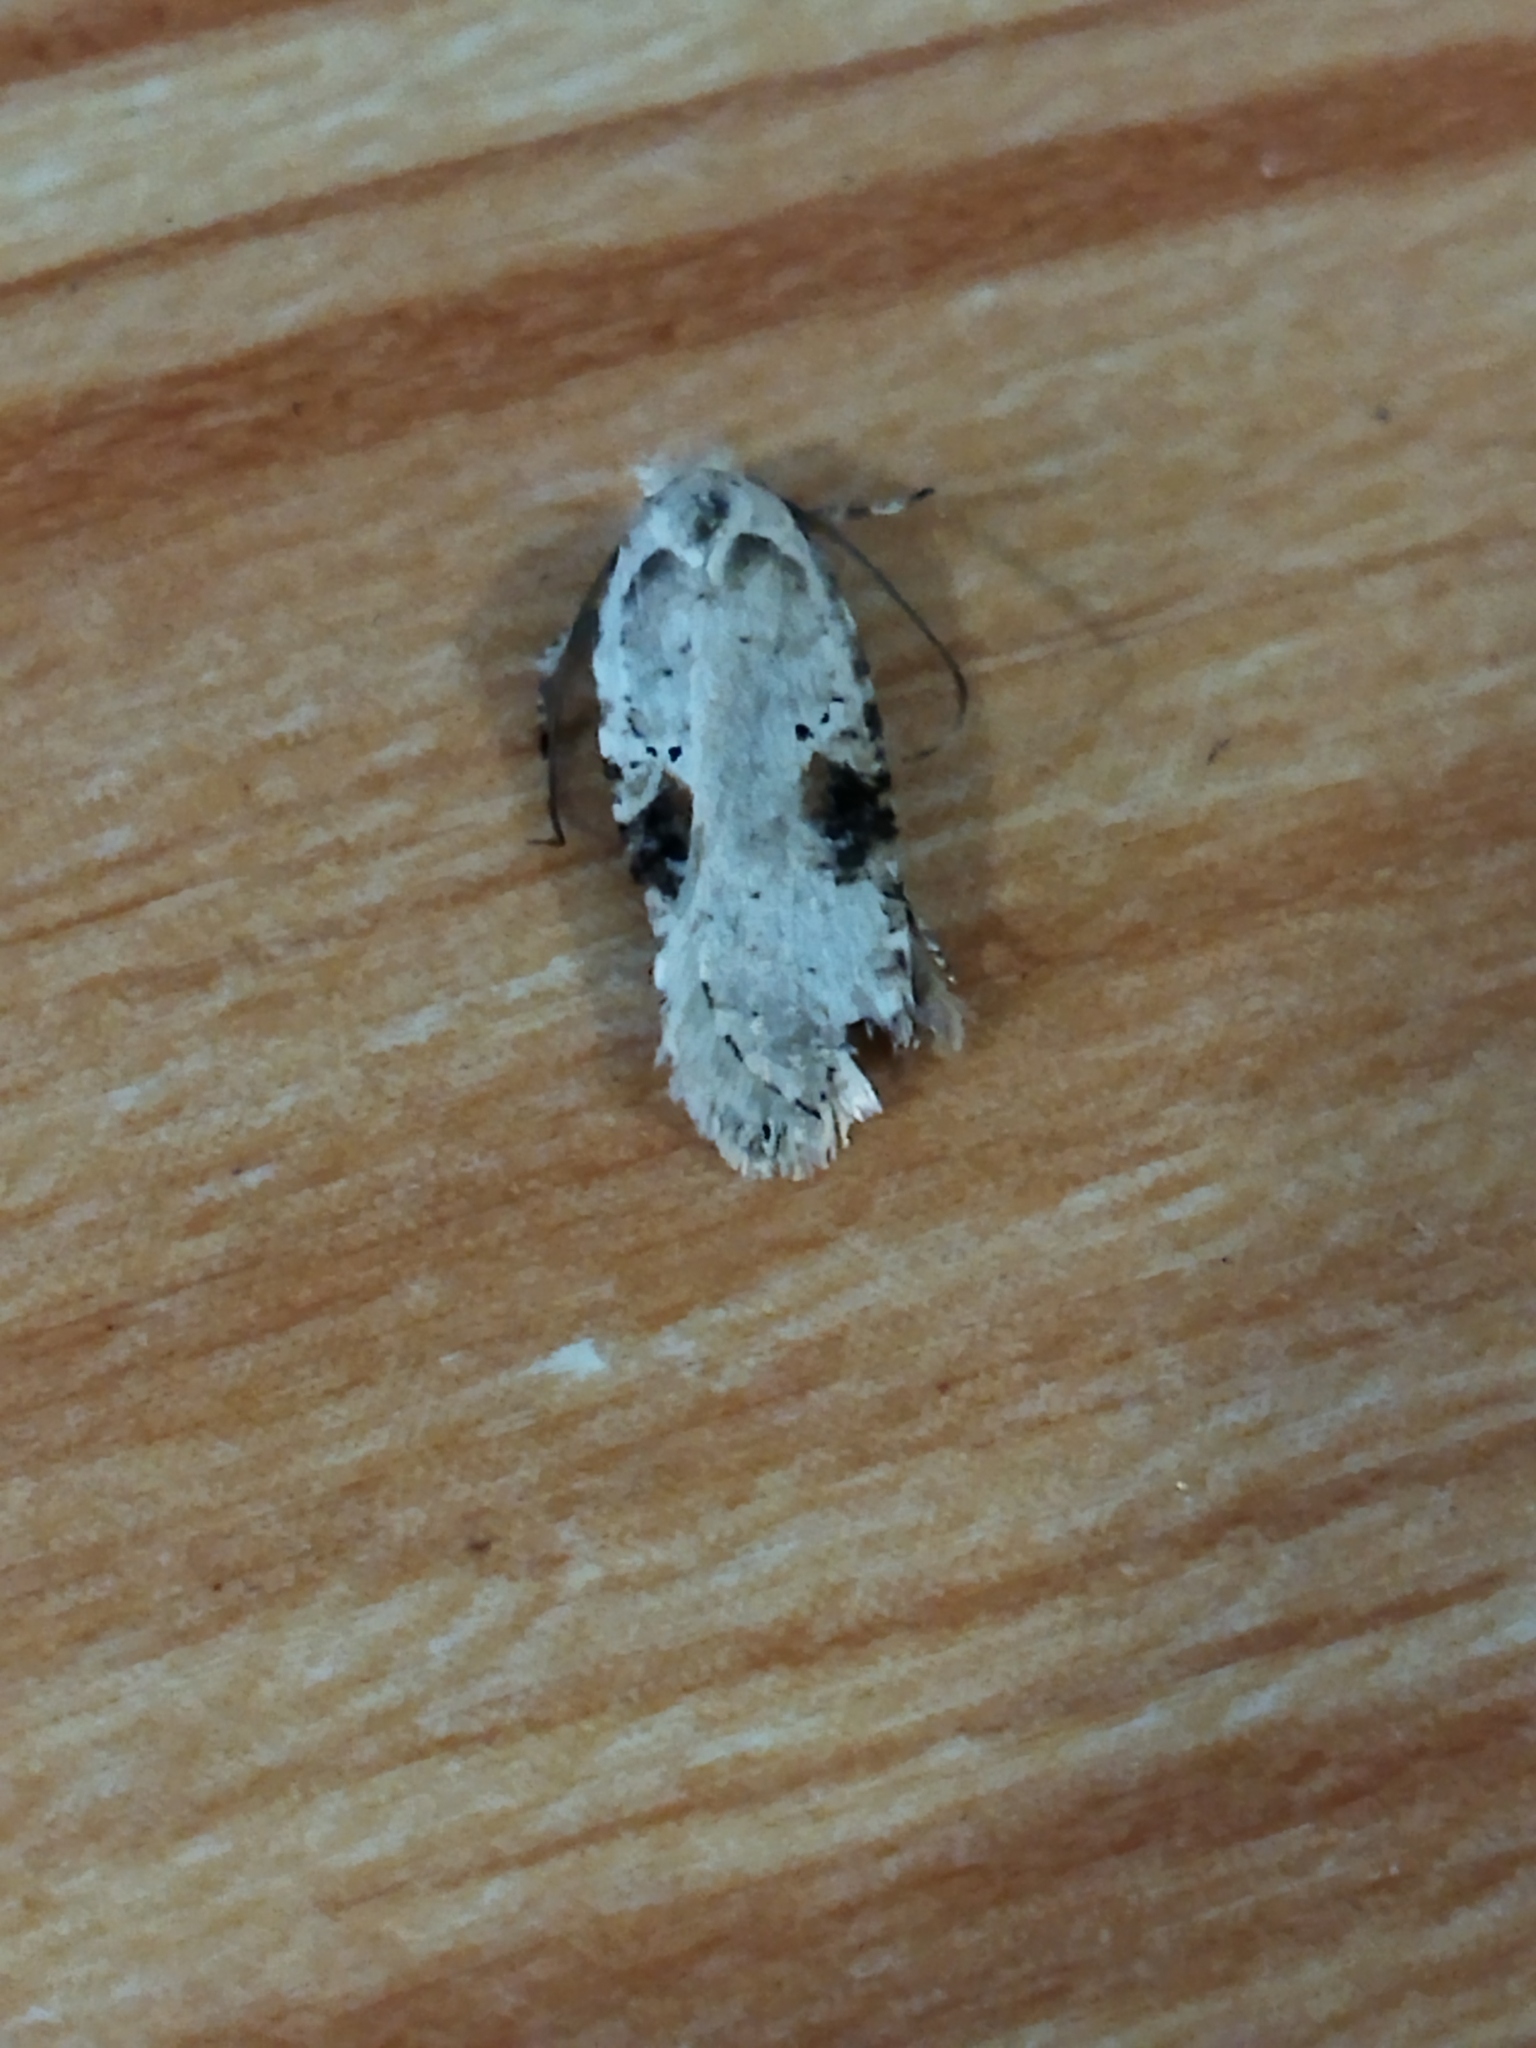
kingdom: Animalia
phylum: Arthropoda
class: Insecta
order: Lepidoptera
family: Depressariidae
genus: Agonopterix
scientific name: Agonopterix alstroemeriana
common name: Moth
